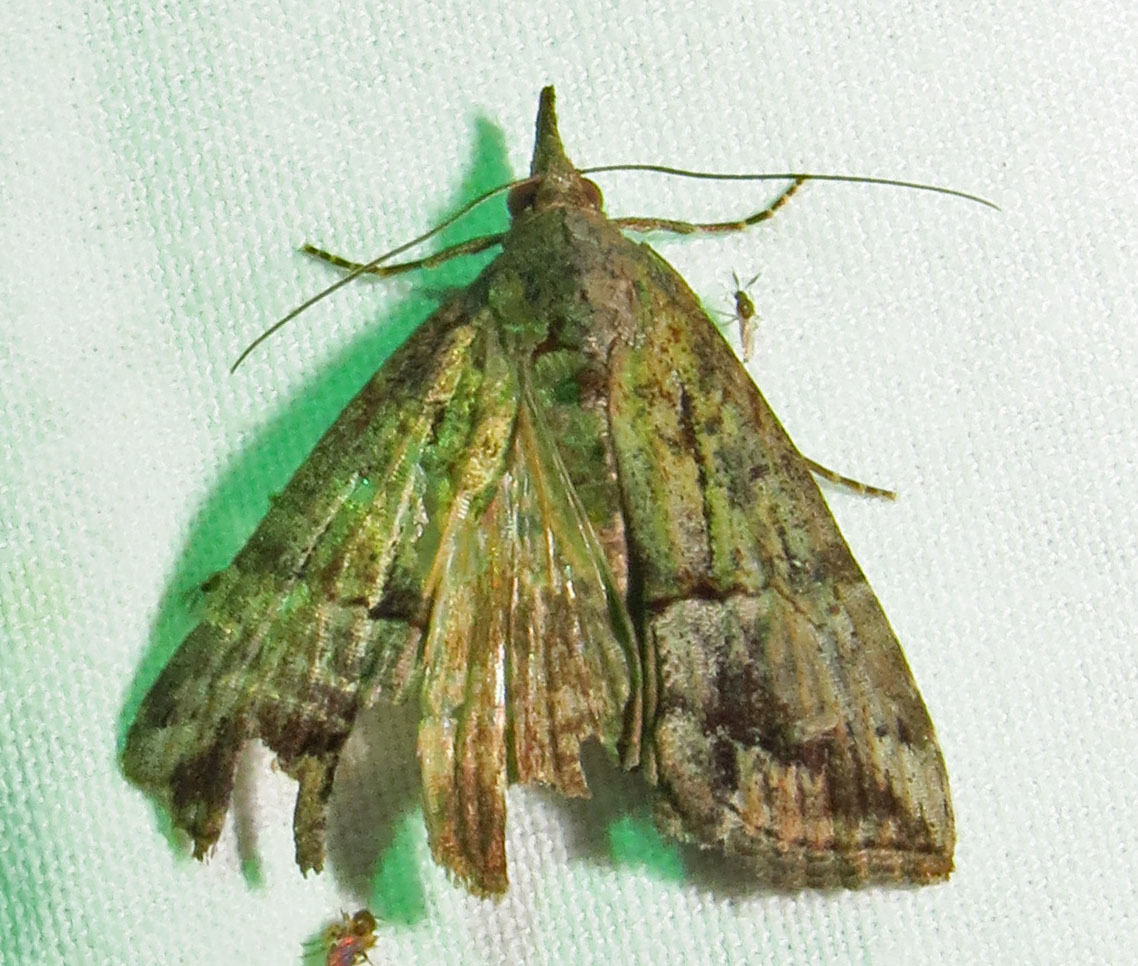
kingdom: Animalia
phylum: Arthropoda
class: Insecta
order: Lepidoptera
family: Erebidae
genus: Hypena
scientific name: Hypena scabra
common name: Green cloverworm
